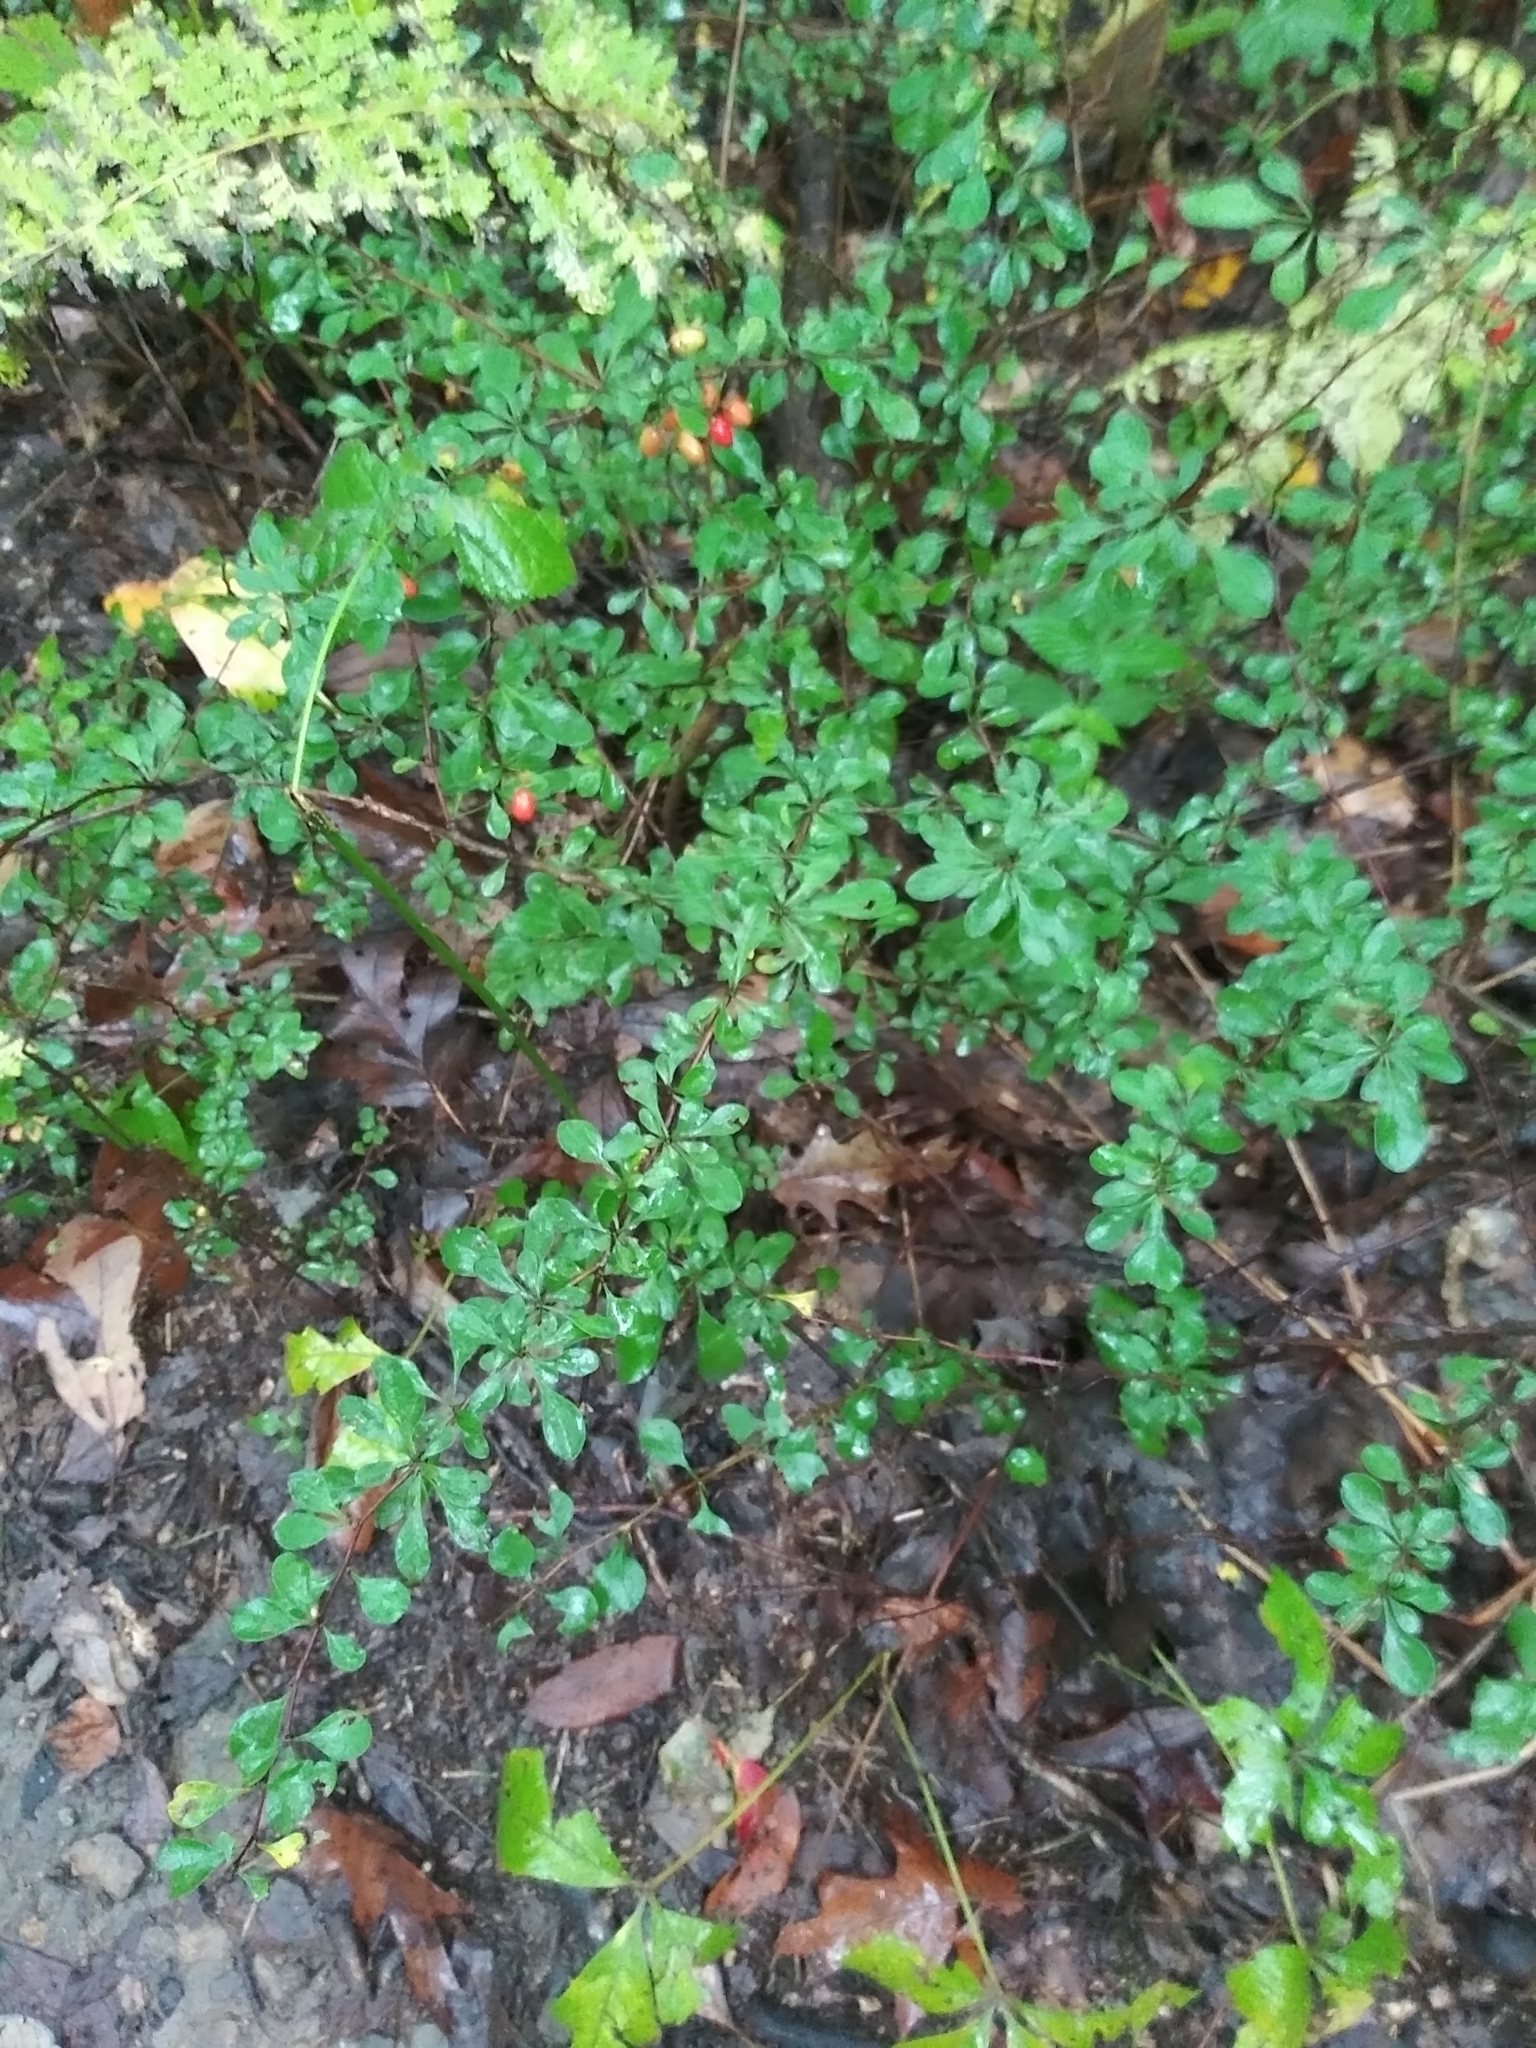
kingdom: Plantae
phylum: Tracheophyta
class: Magnoliopsida
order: Ranunculales
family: Berberidaceae
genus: Berberis
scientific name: Berberis thunbergii
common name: Japanese barberry
